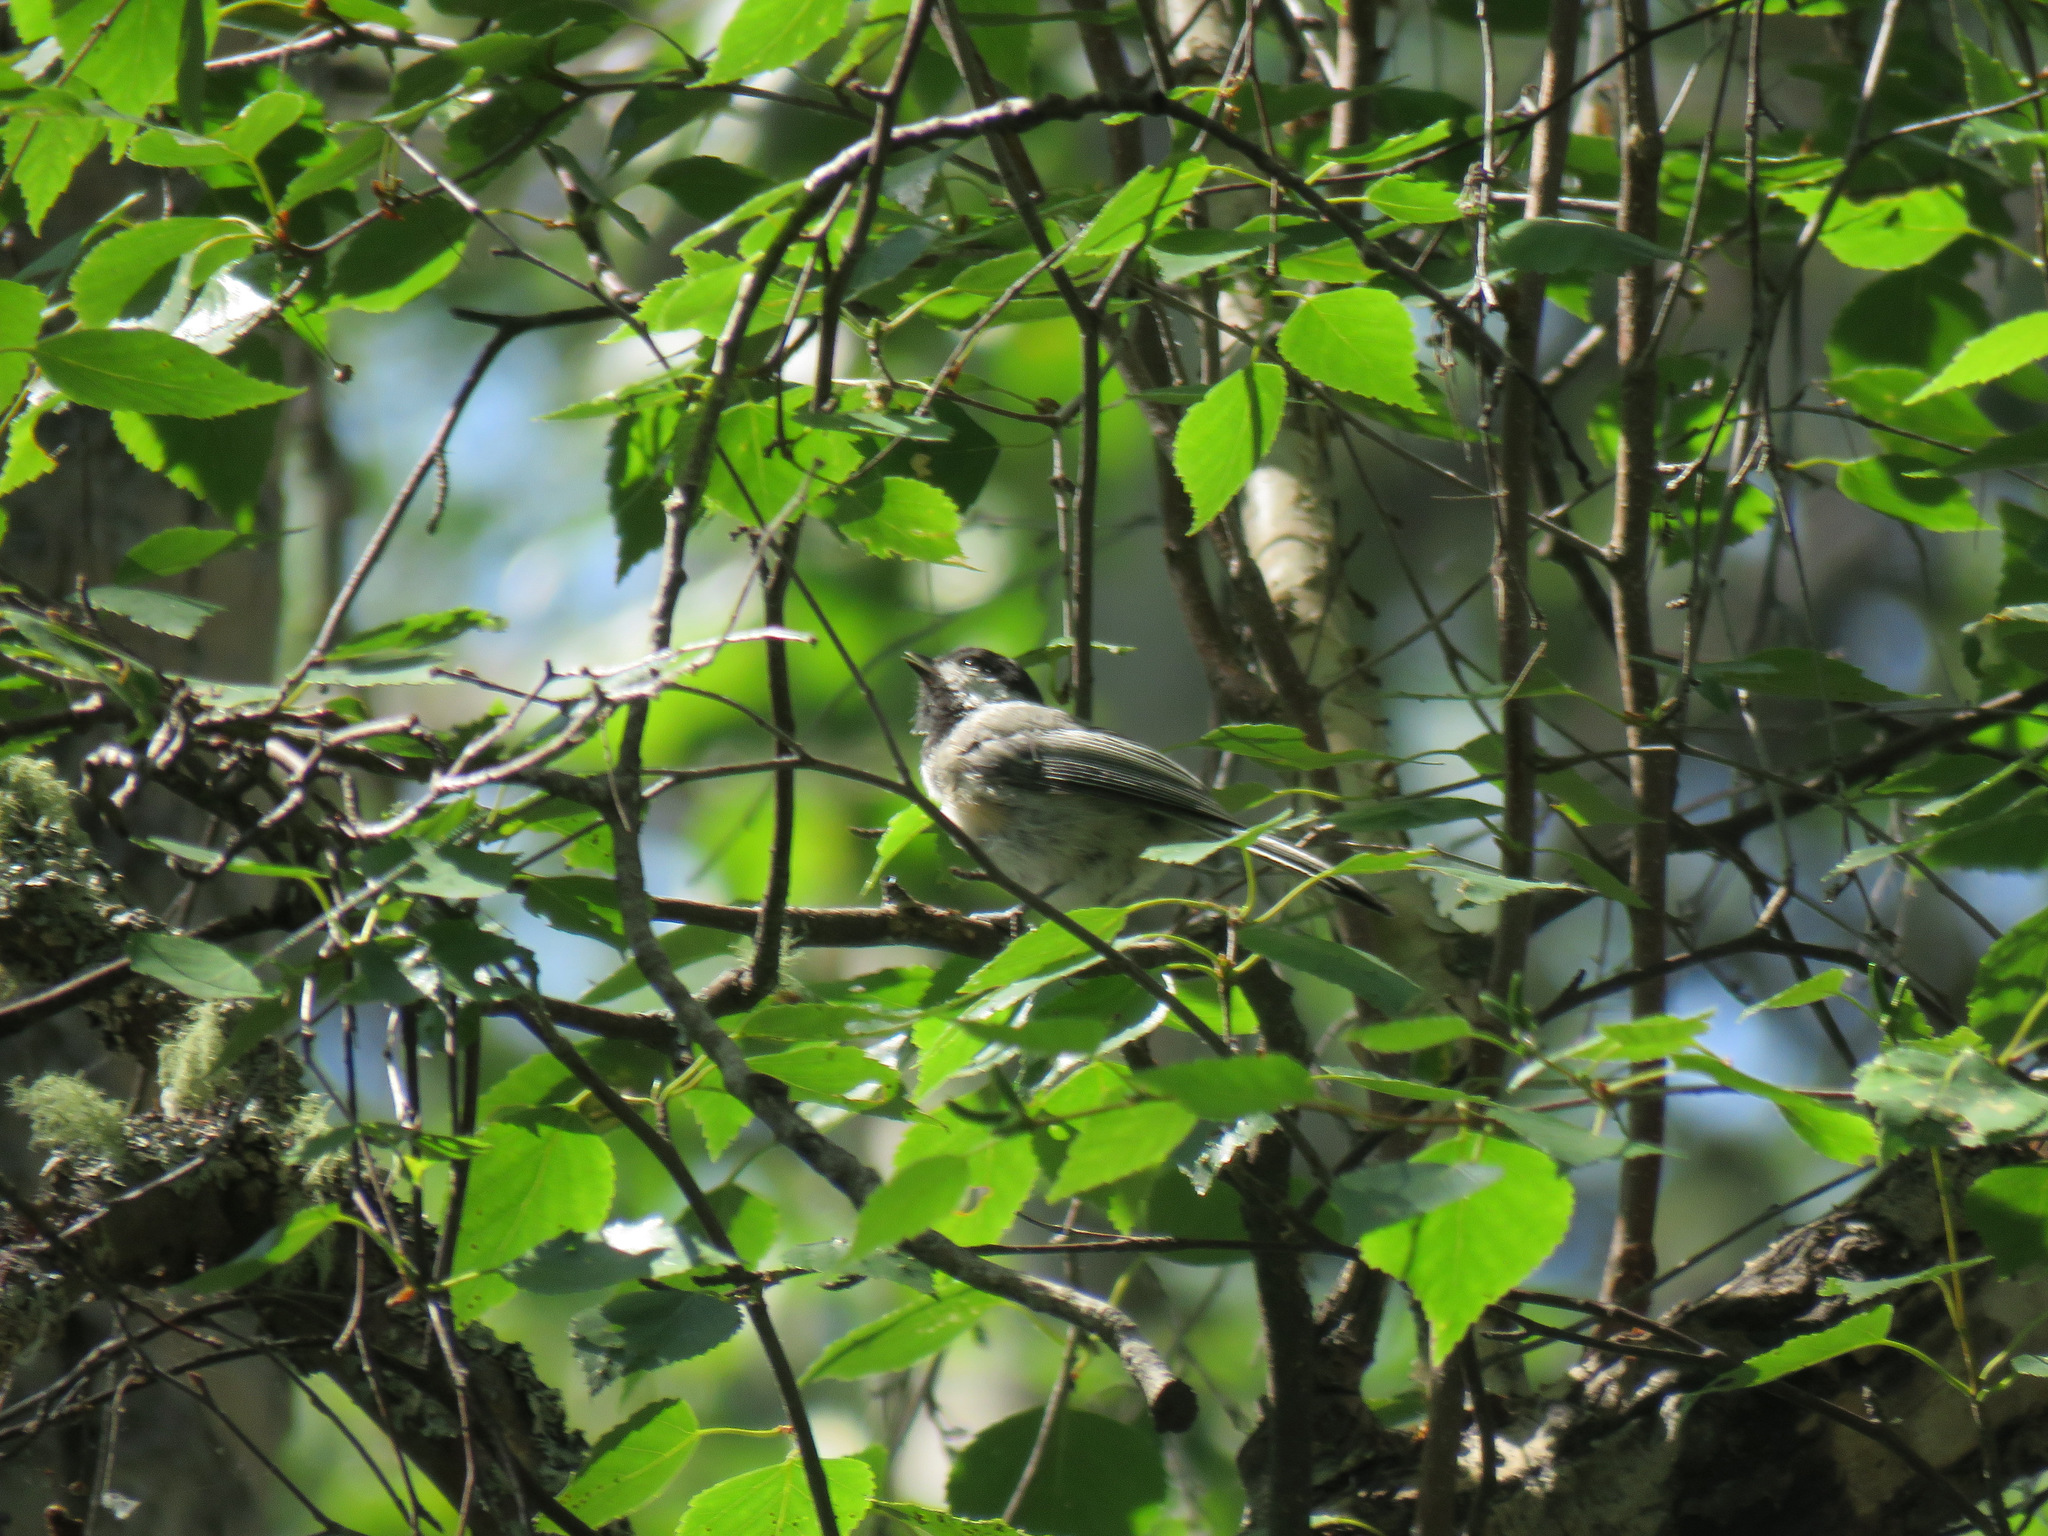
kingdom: Animalia
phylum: Chordata
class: Aves
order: Passeriformes
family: Paridae
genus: Poecile
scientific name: Poecile atricapillus
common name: Black-capped chickadee
